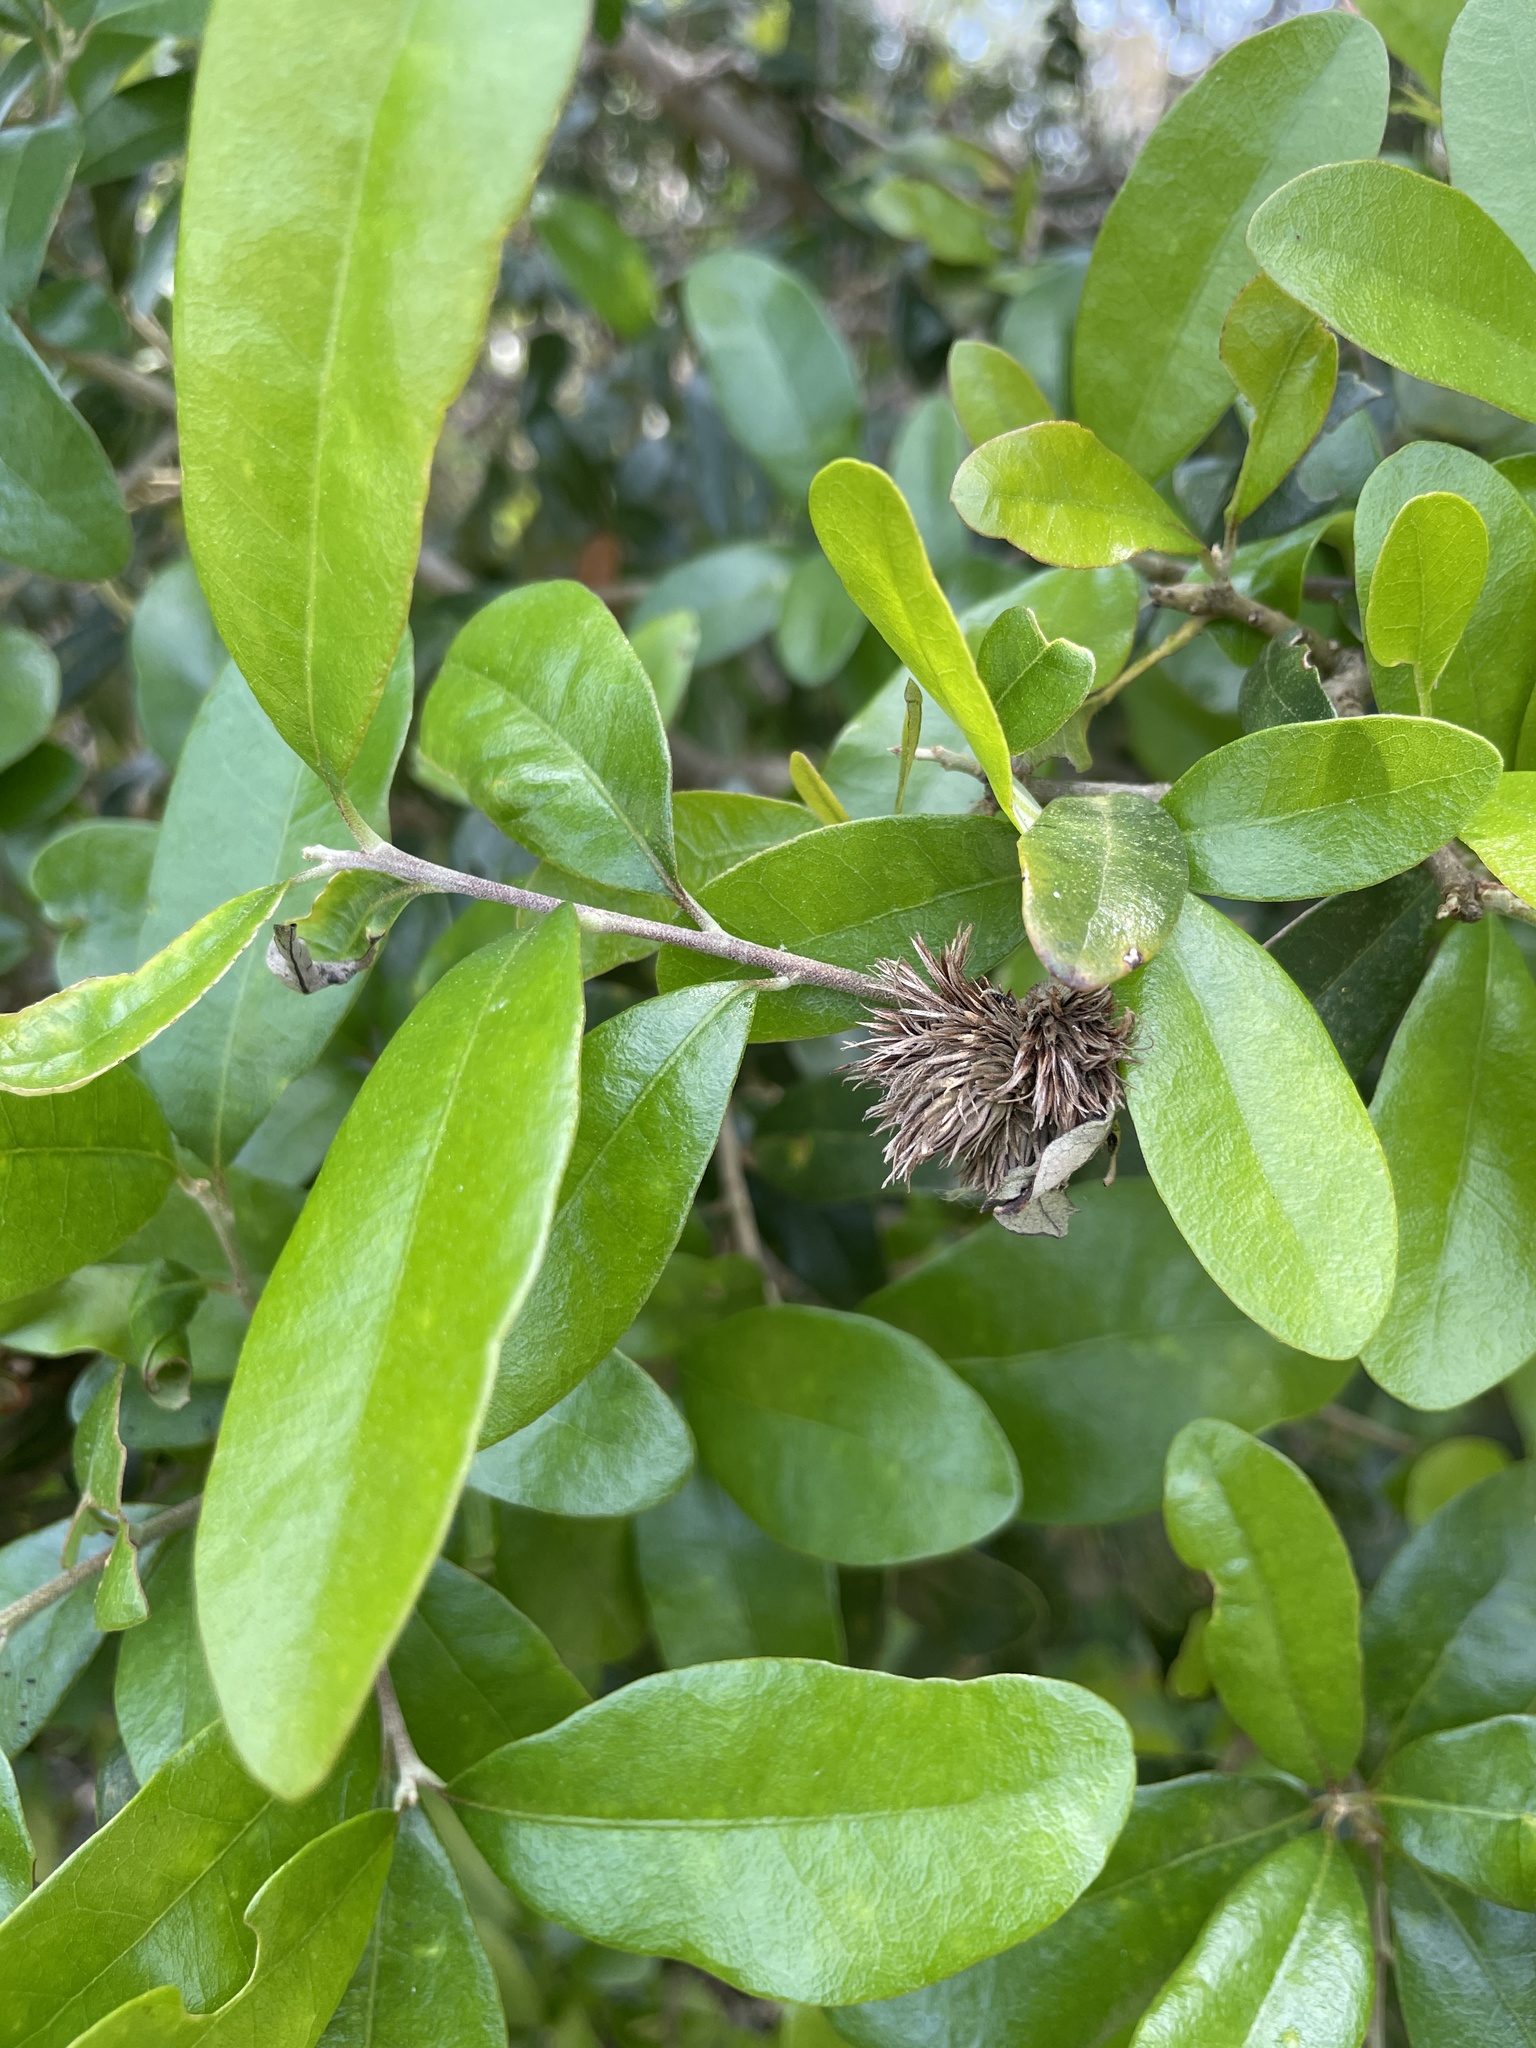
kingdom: Animalia
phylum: Arthropoda
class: Insecta
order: Hymenoptera
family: Cynipidae
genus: Andricus
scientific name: Andricus quercusfoliatus
